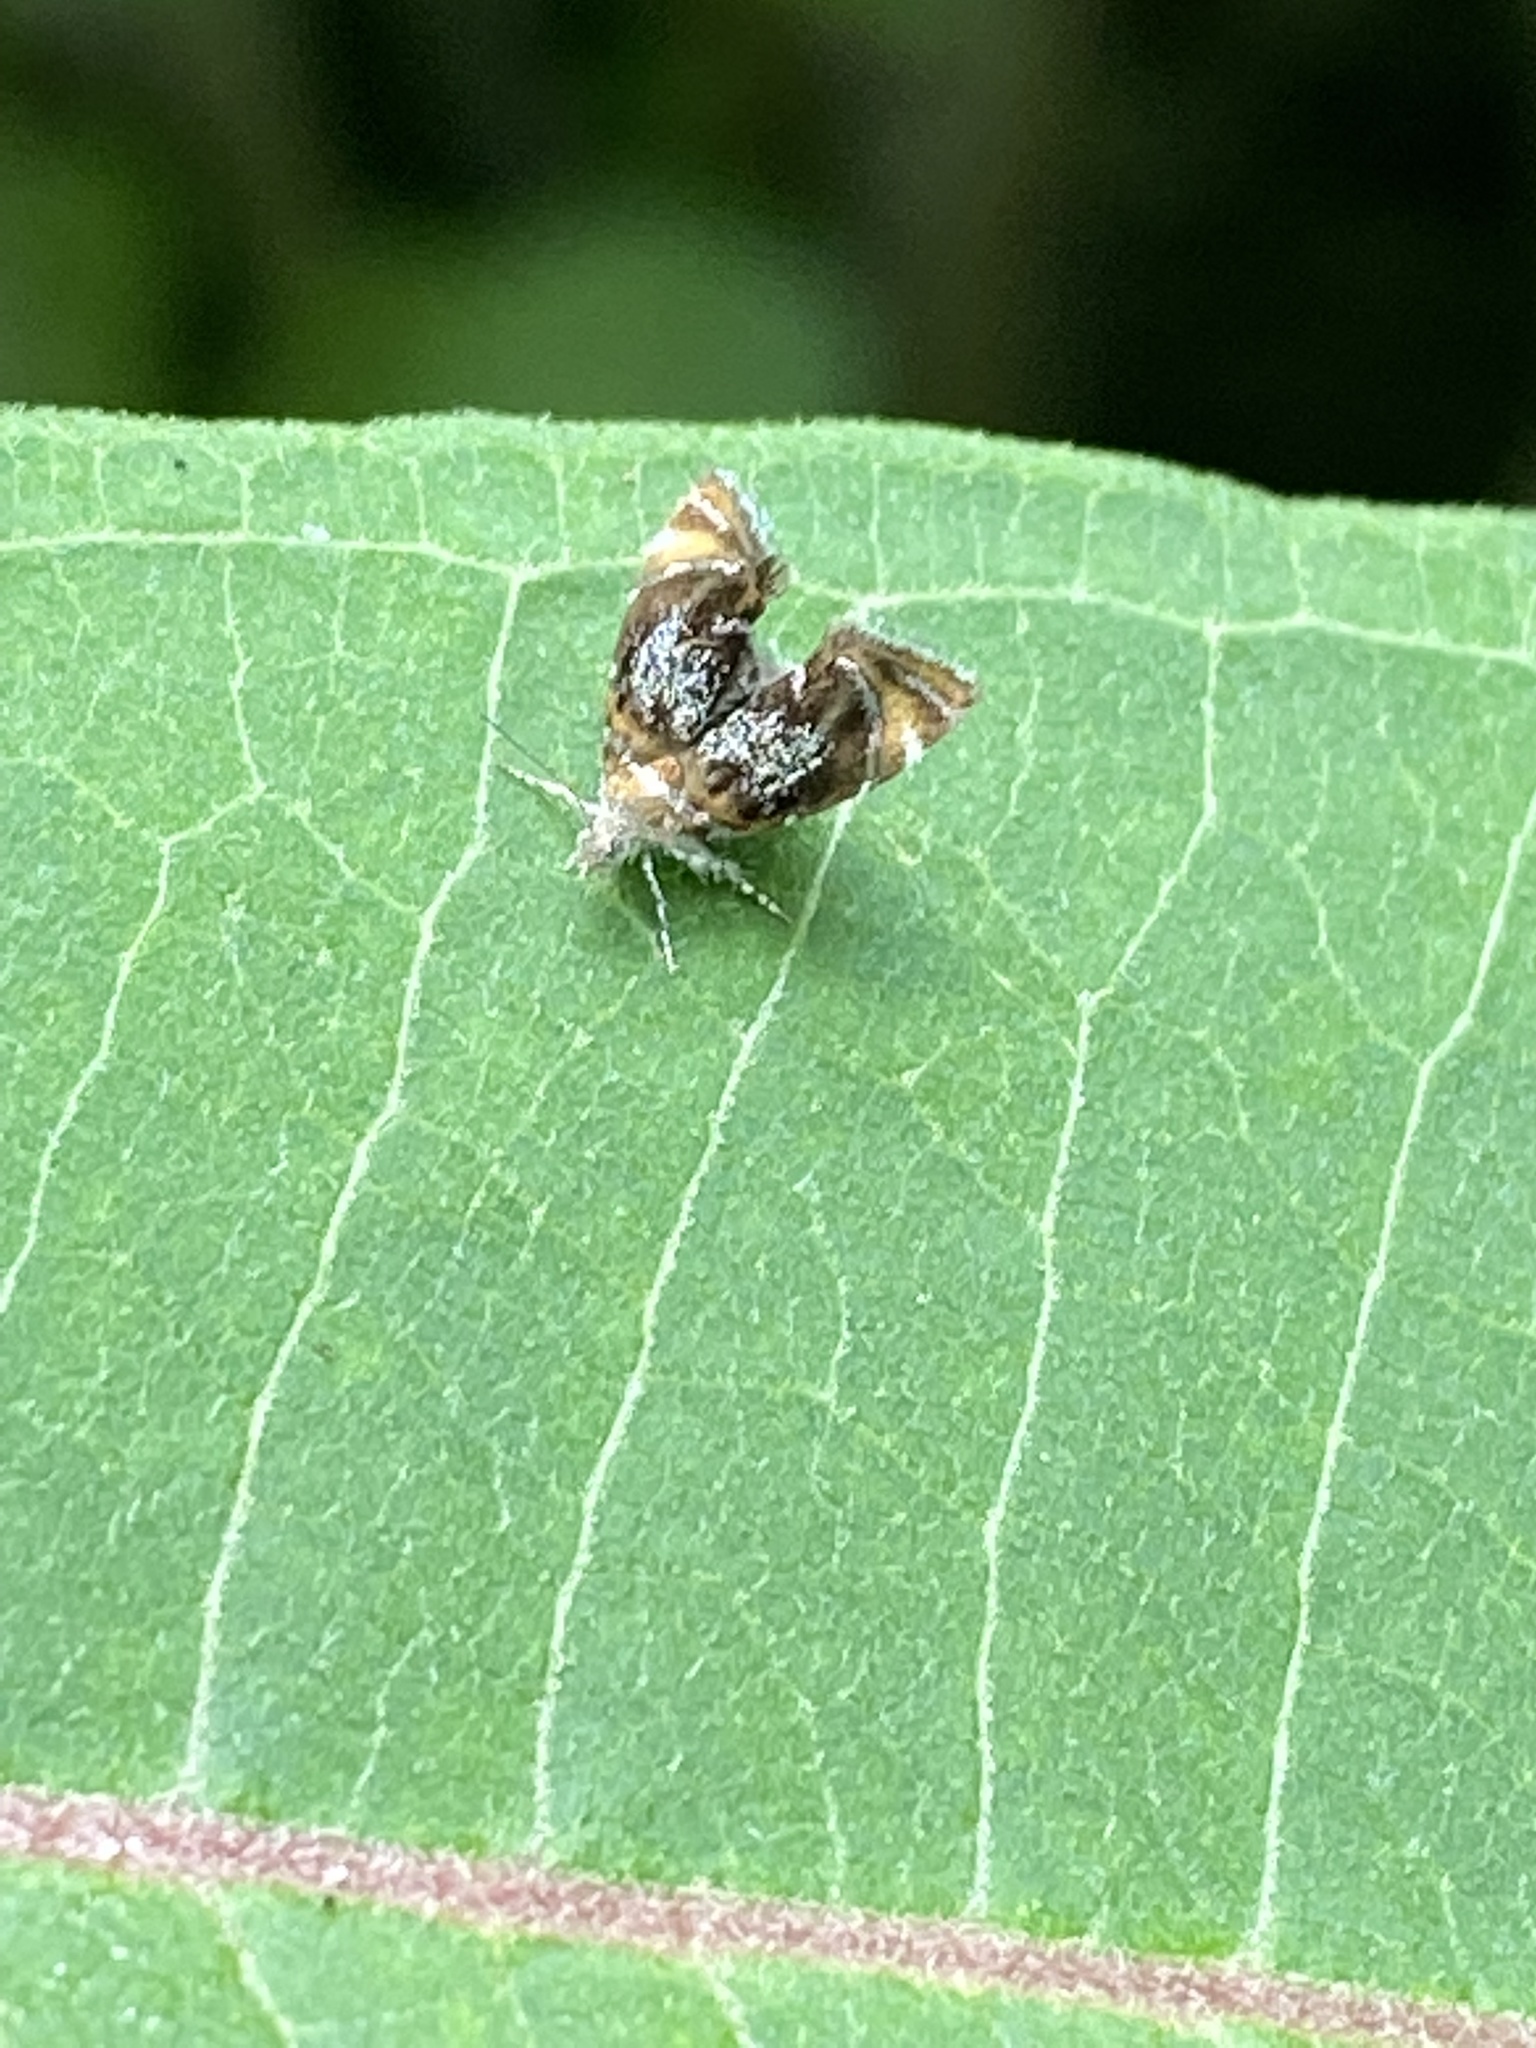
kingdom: Animalia
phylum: Arthropoda
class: Insecta
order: Lepidoptera
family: Choreutidae
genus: Prochoreutis
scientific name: Prochoreutis inflatella
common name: Skullcap skeletonizer moth
